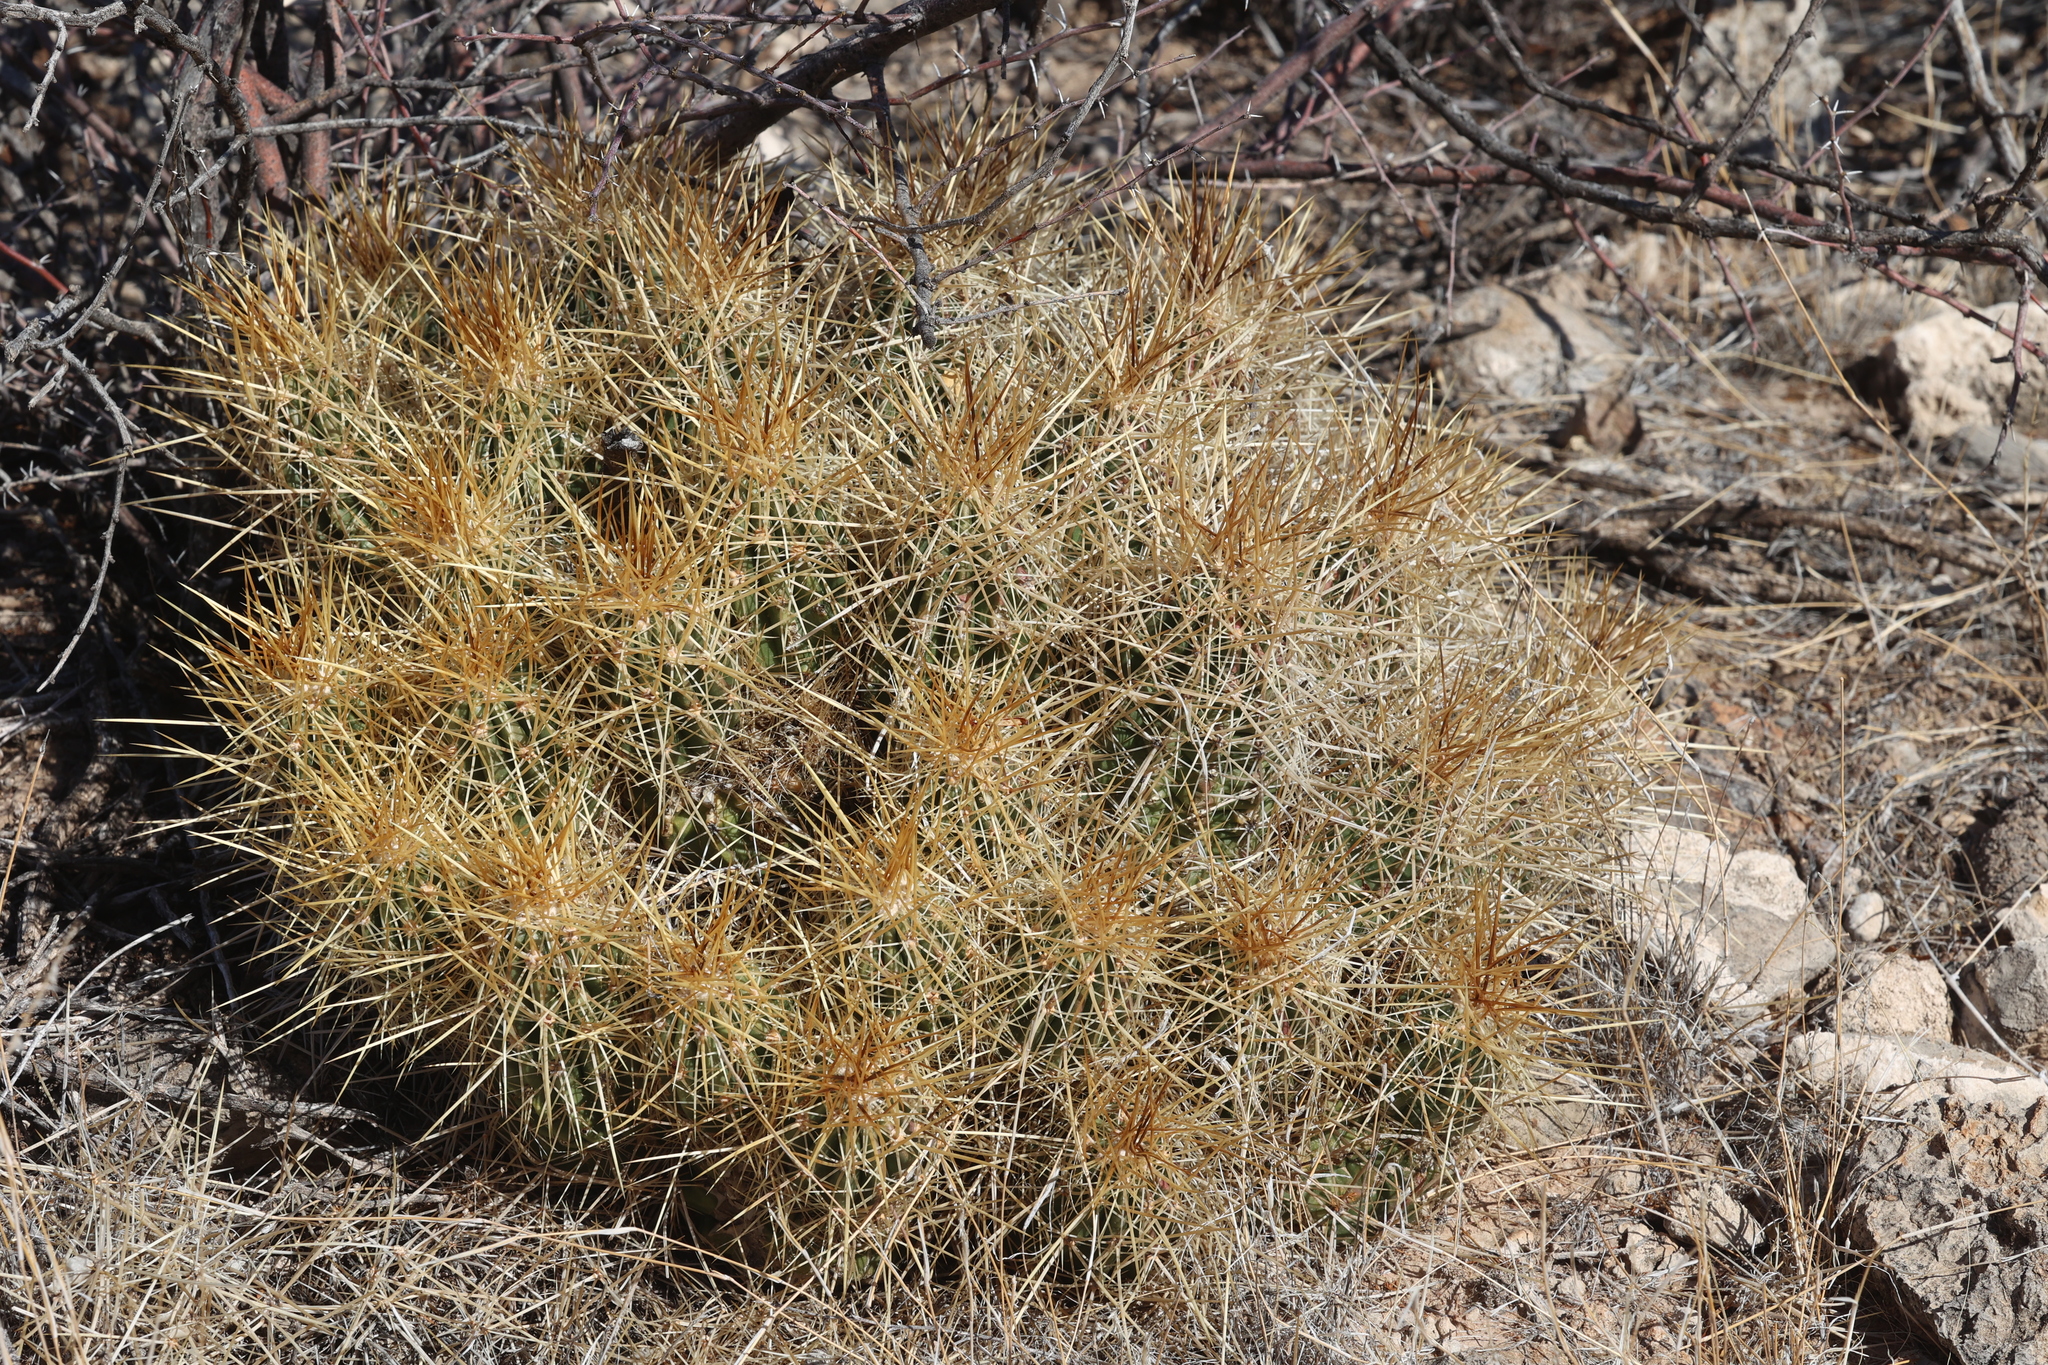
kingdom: Plantae
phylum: Tracheophyta
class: Magnoliopsida
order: Caryophyllales
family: Cactaceae
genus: Echinocereus
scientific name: Echinocereus stramineus
